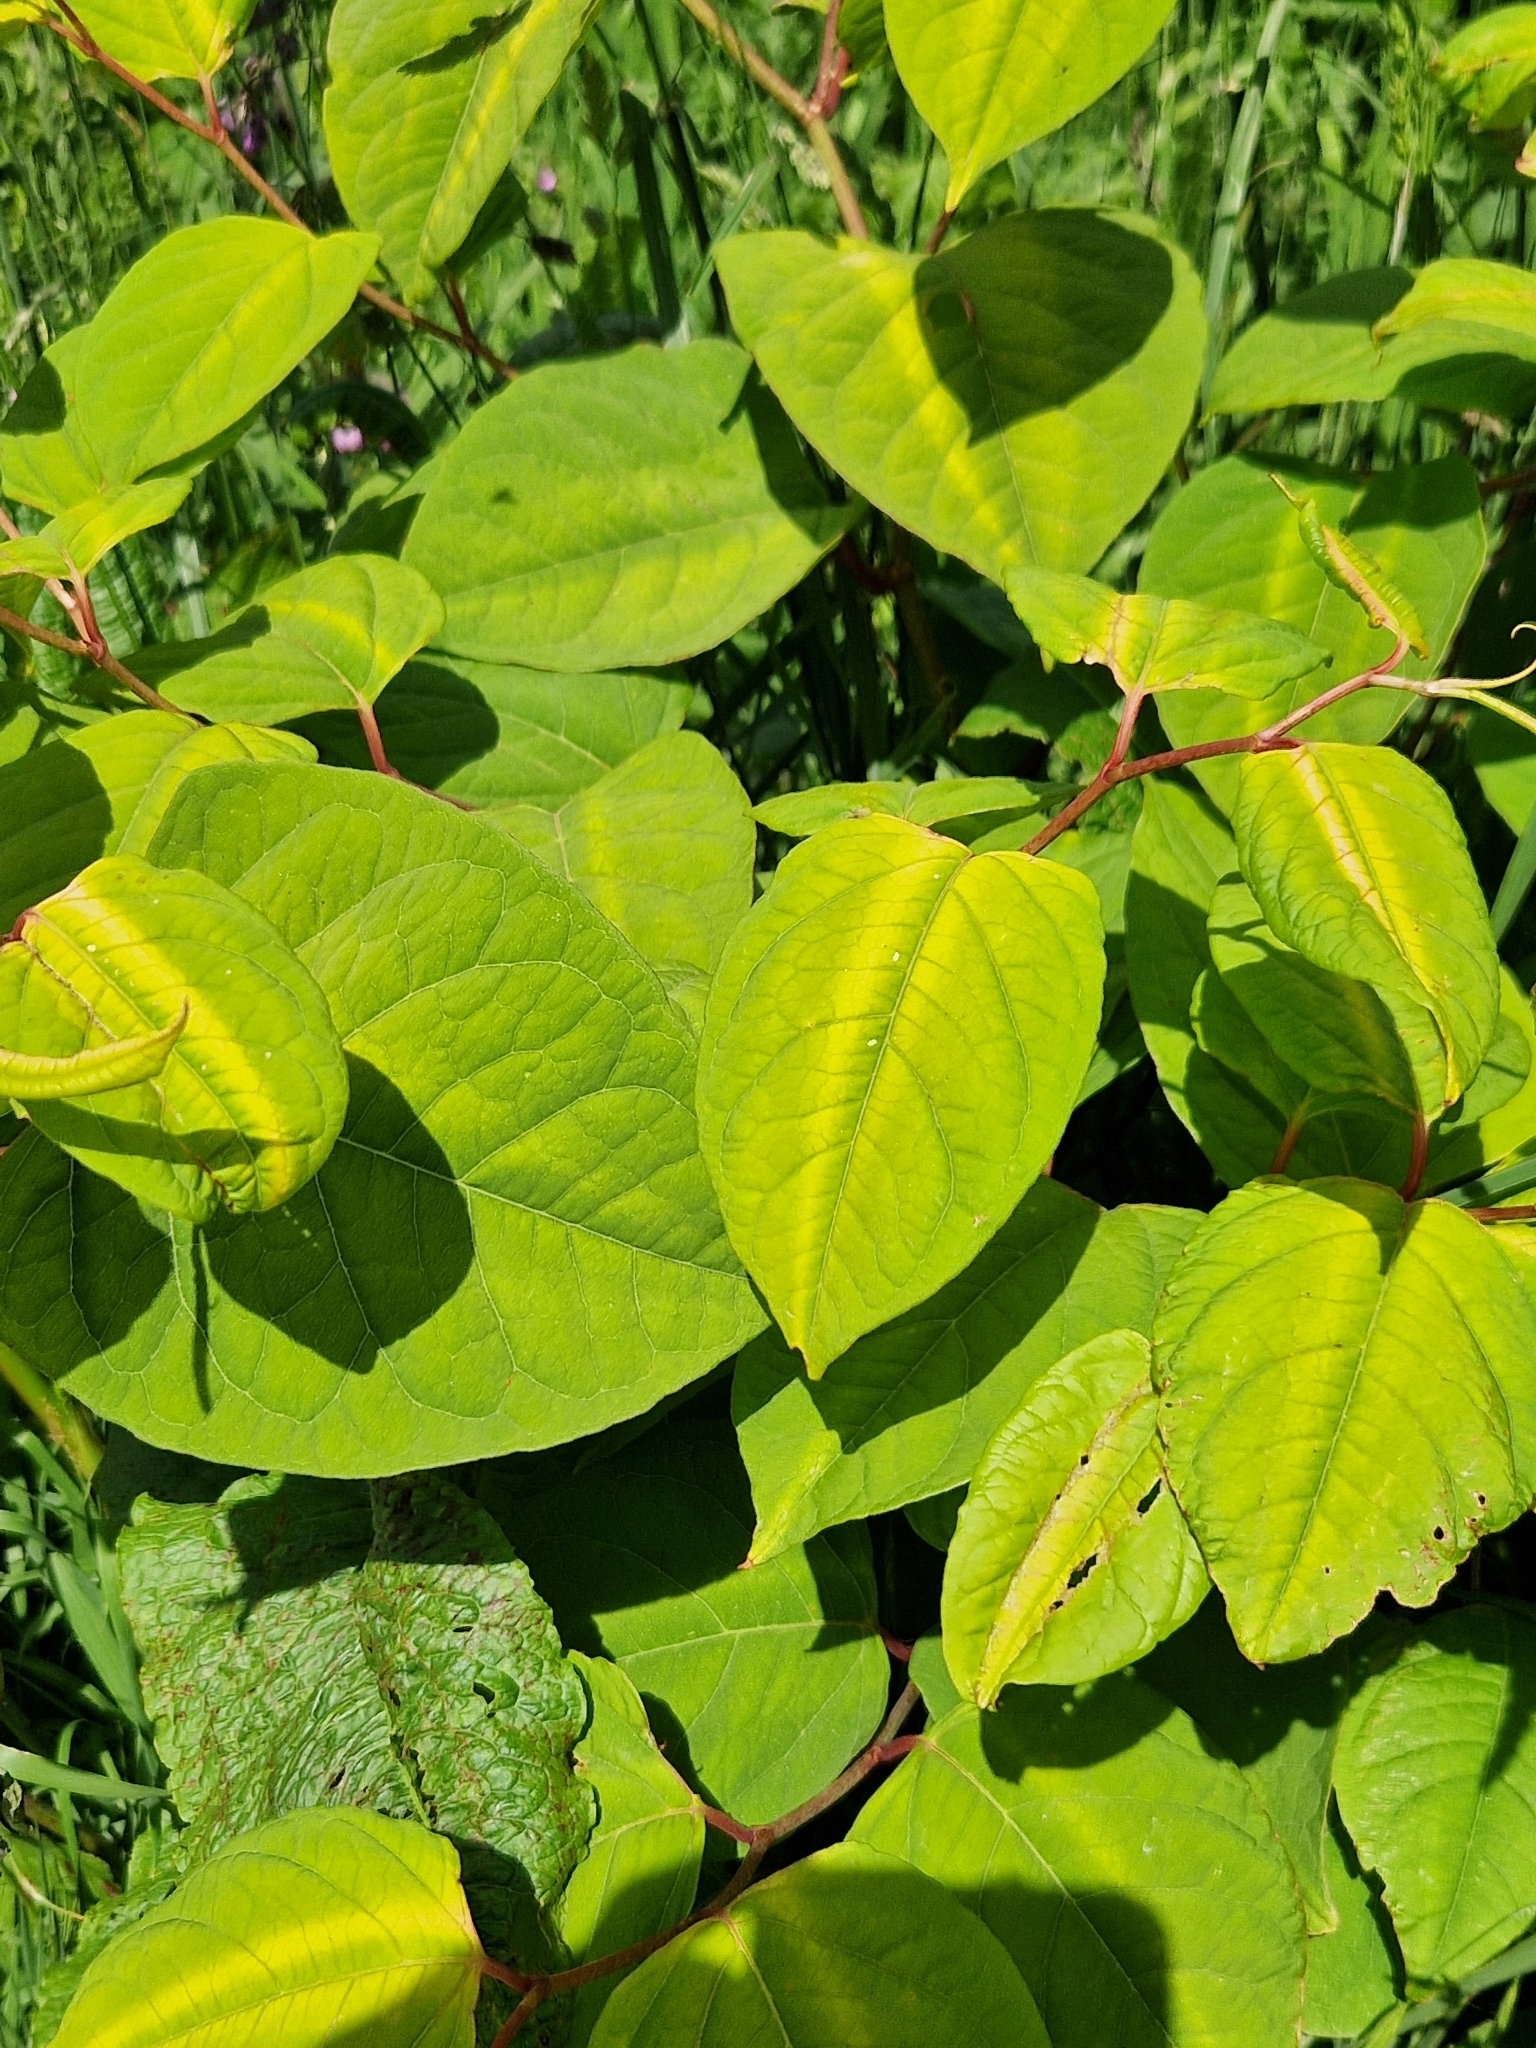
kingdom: Plantae
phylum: Tracheophyta
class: Magnoliopsida
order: Caryophyllales
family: Polygonaceae
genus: Reynoutria
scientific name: Reynoutria japonica
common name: Japanese knotweed
